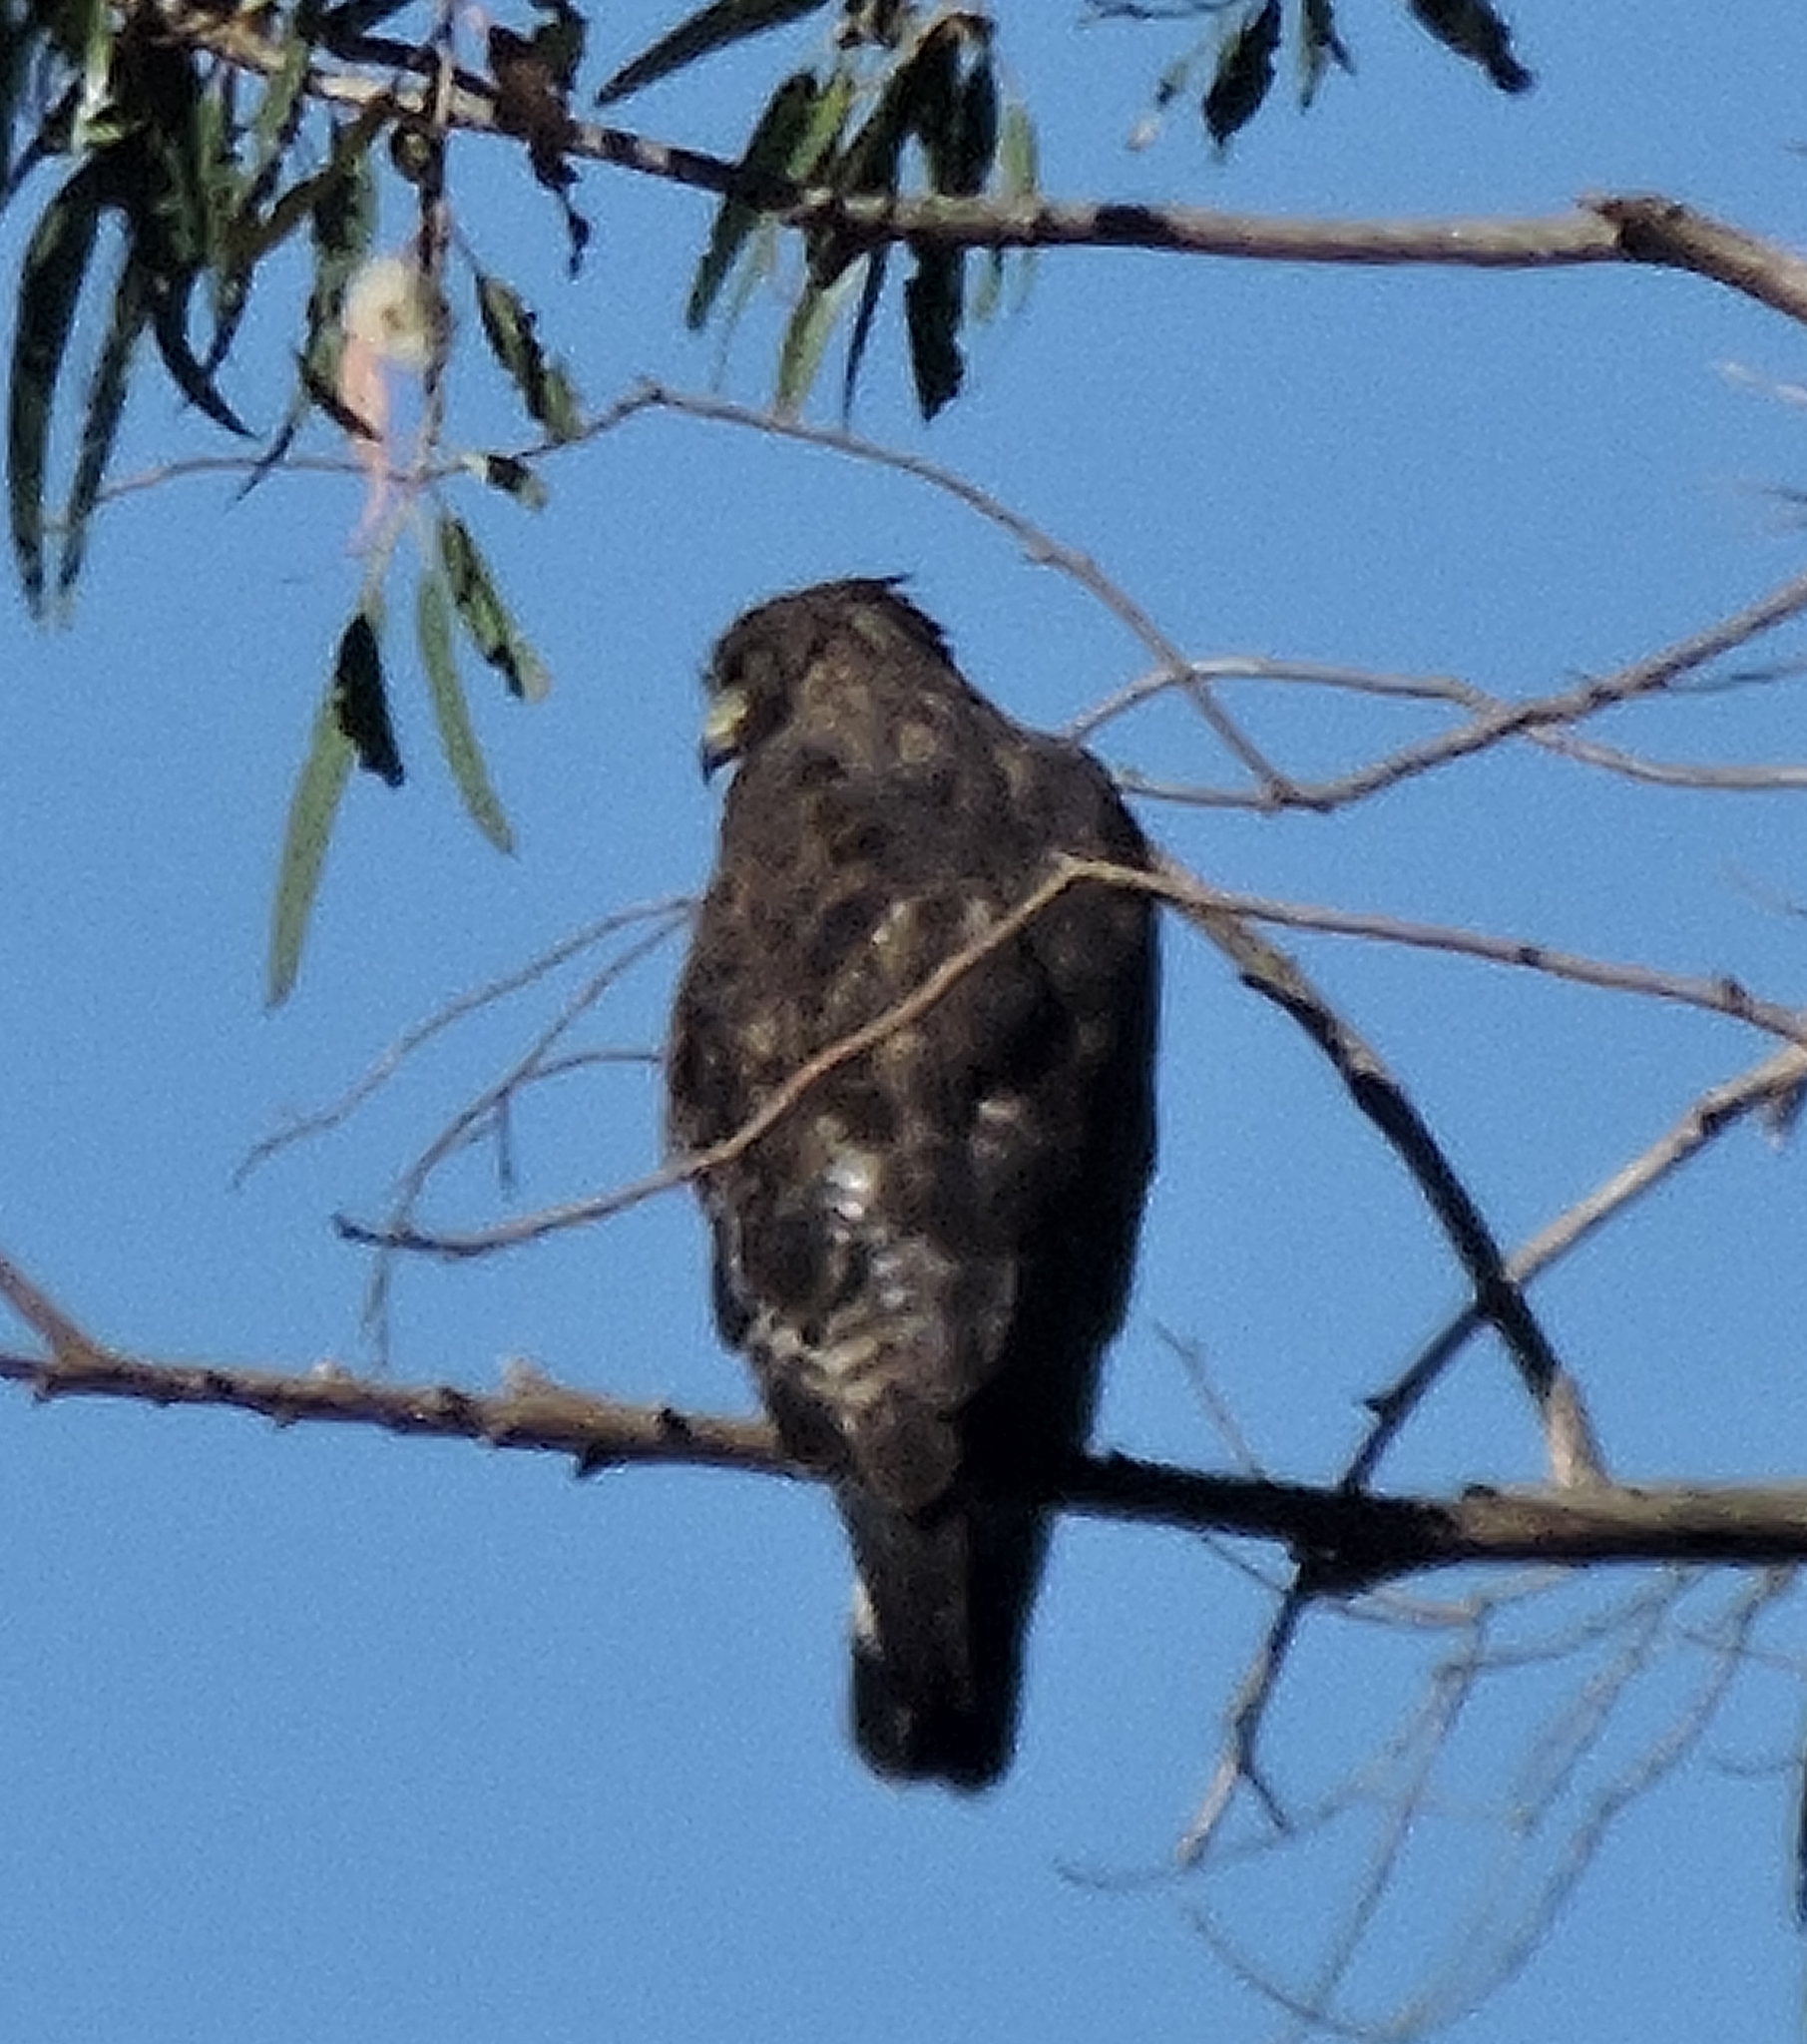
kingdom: Animalia
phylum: Chordata
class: Aves
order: Accipitriformes
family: Accipitridae
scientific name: Accipitridae
